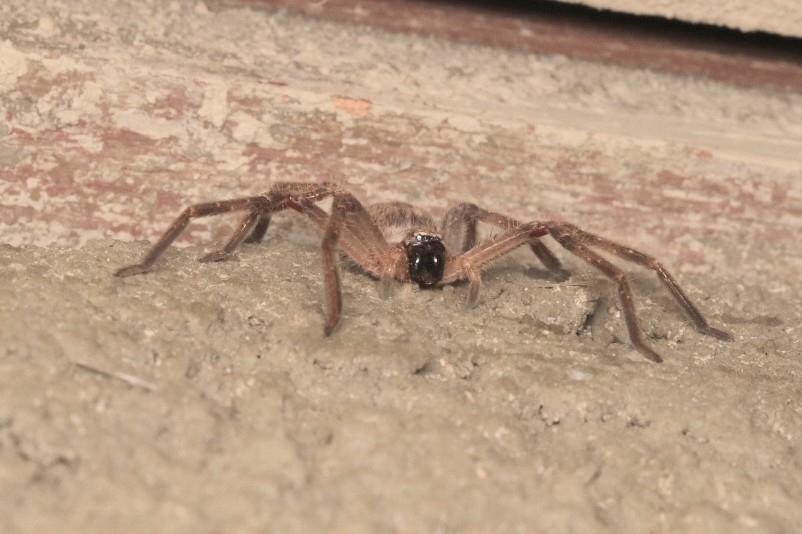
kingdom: Animalia
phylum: Arthropoda
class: Arachnida
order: Araneae
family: Sparassidae
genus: Olios
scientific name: Olios giganteus
